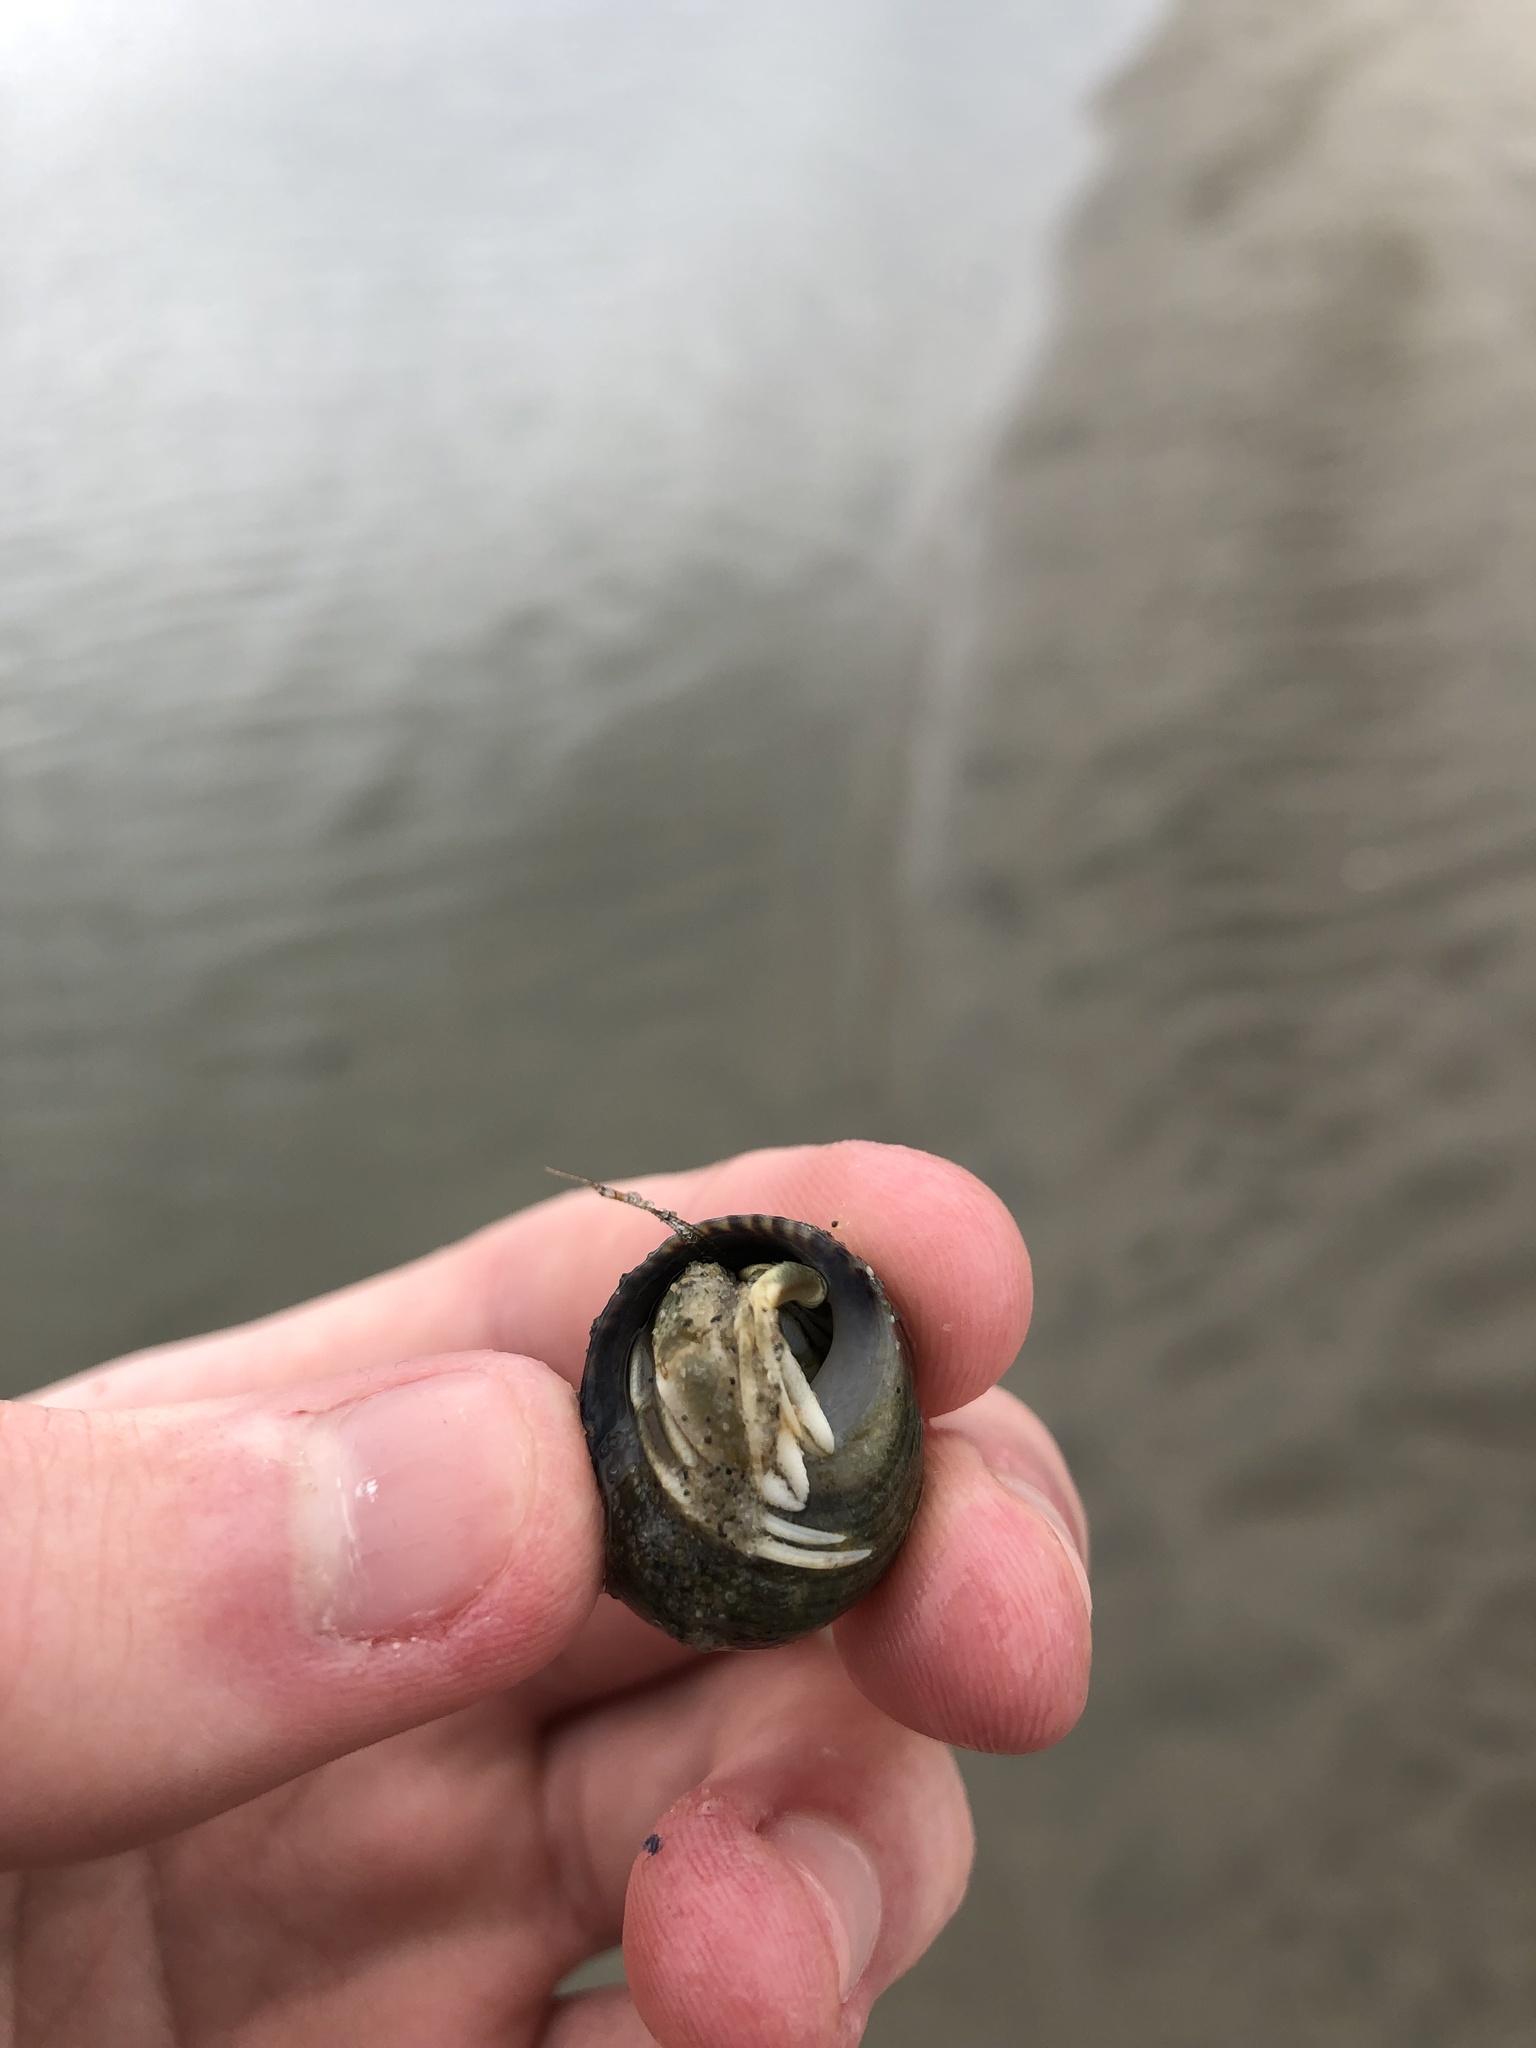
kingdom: Animalia
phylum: Arthropoda
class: Malacostraca
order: Decapoda
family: Paguridae
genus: Pagurus
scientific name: Pagurus longicarpus
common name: Long-armed hermit crab
